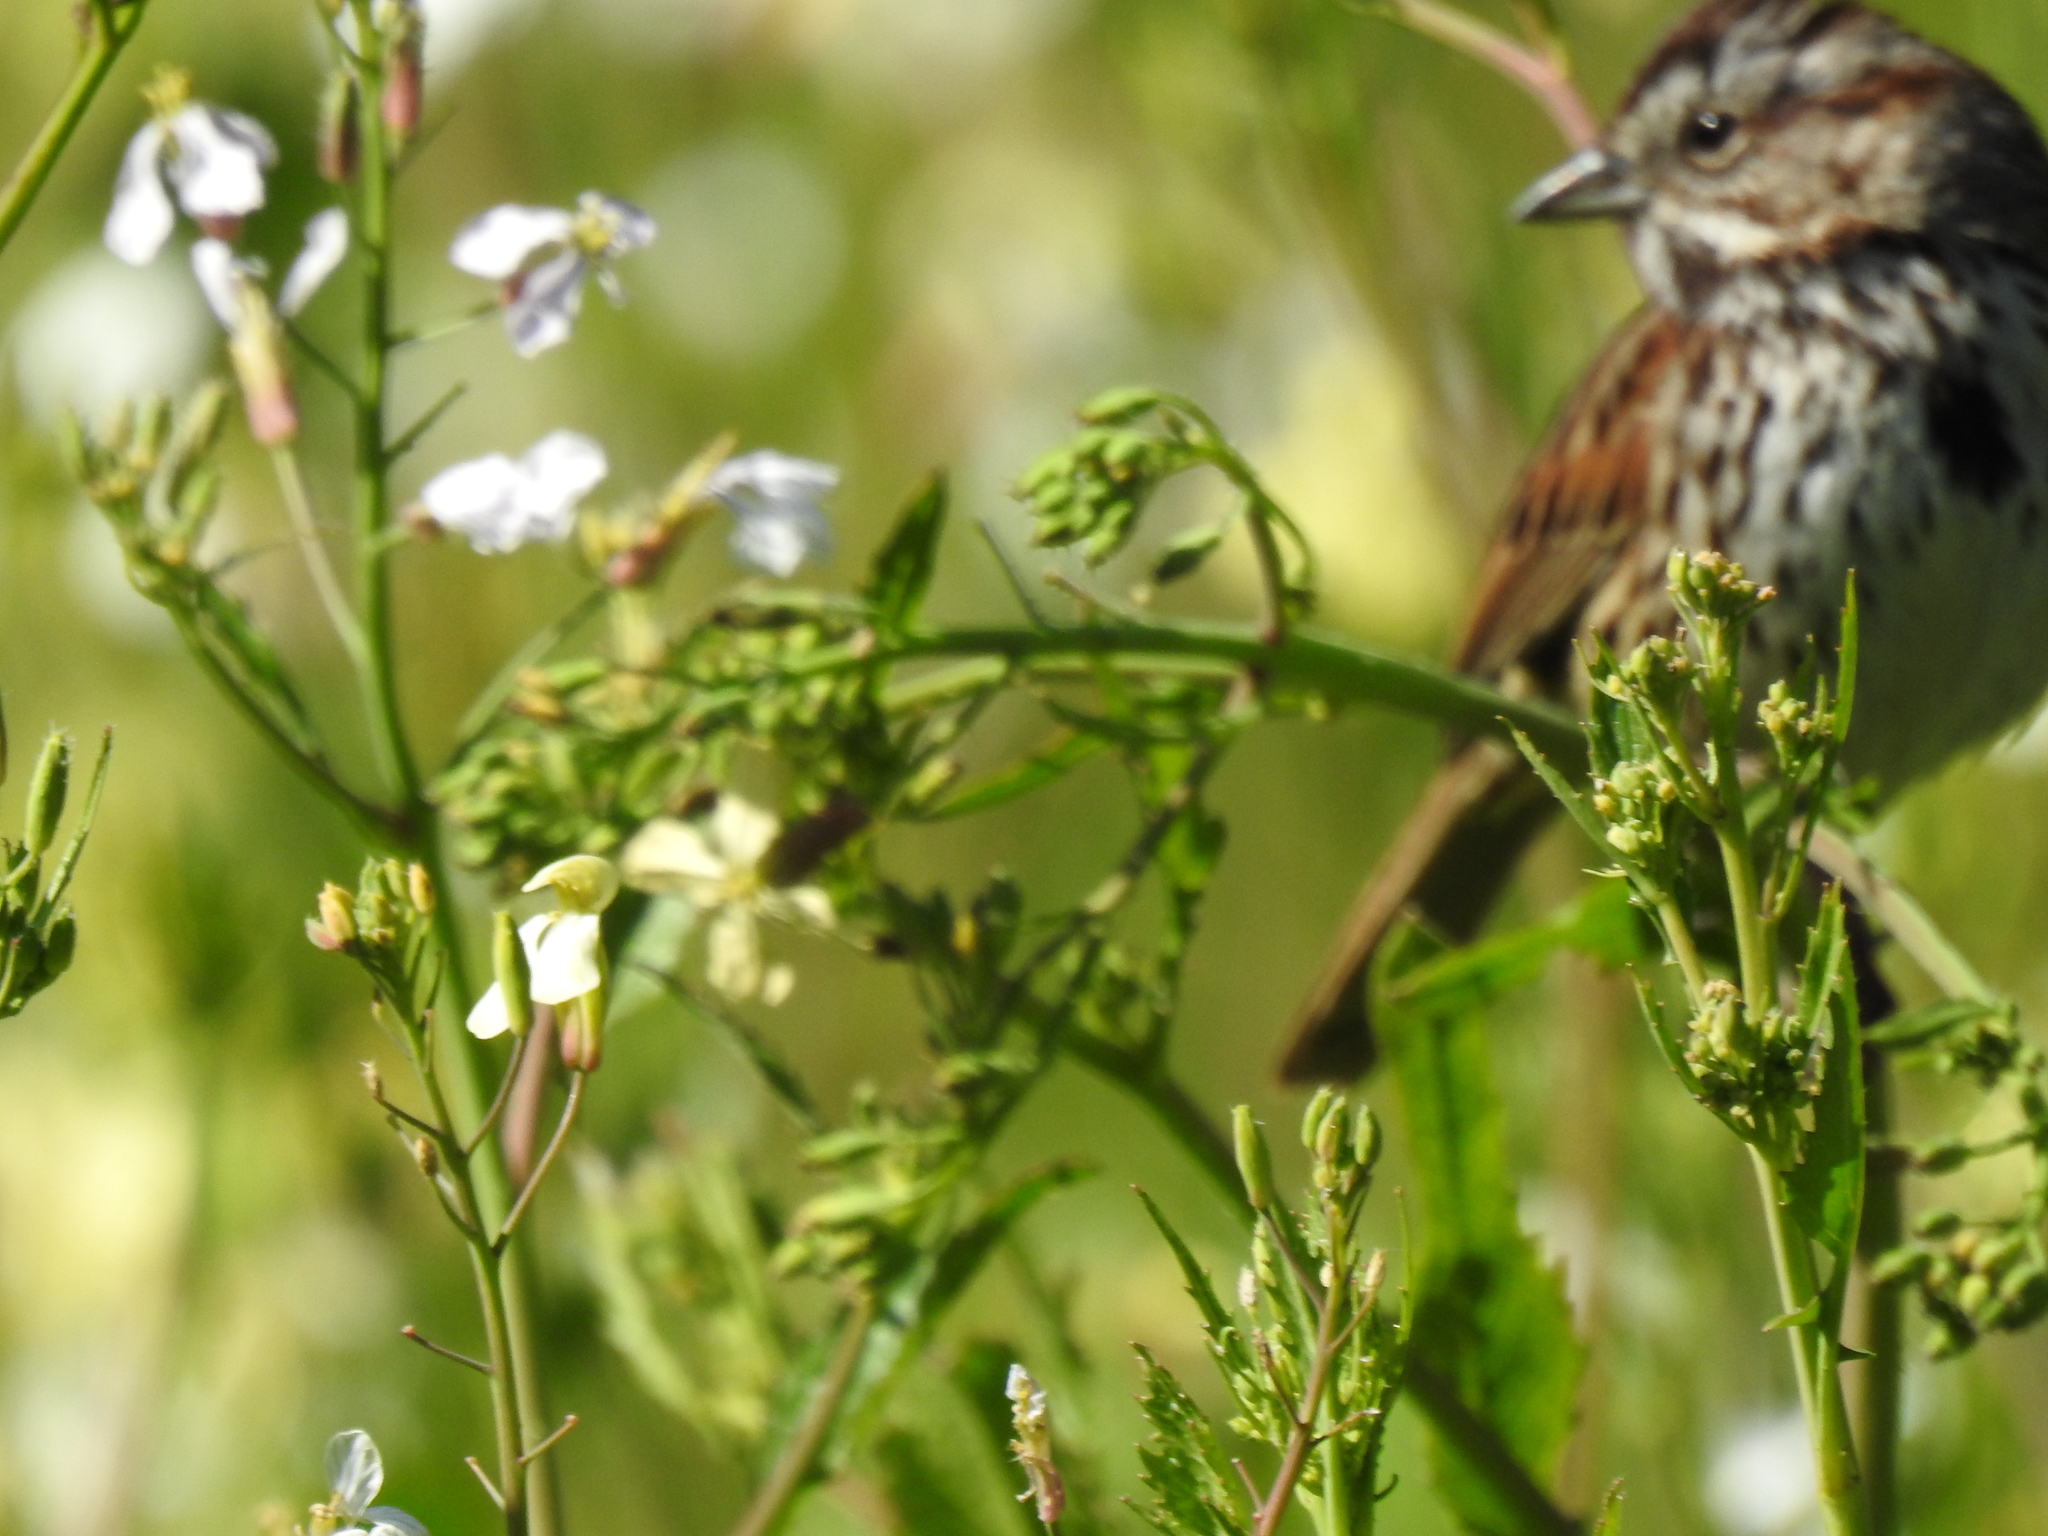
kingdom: Animalia
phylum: Chordata
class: Aves
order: Passeriformes
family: Passerellidae
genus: Melospiza
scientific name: Melospiza melodia
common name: Song sparrow
